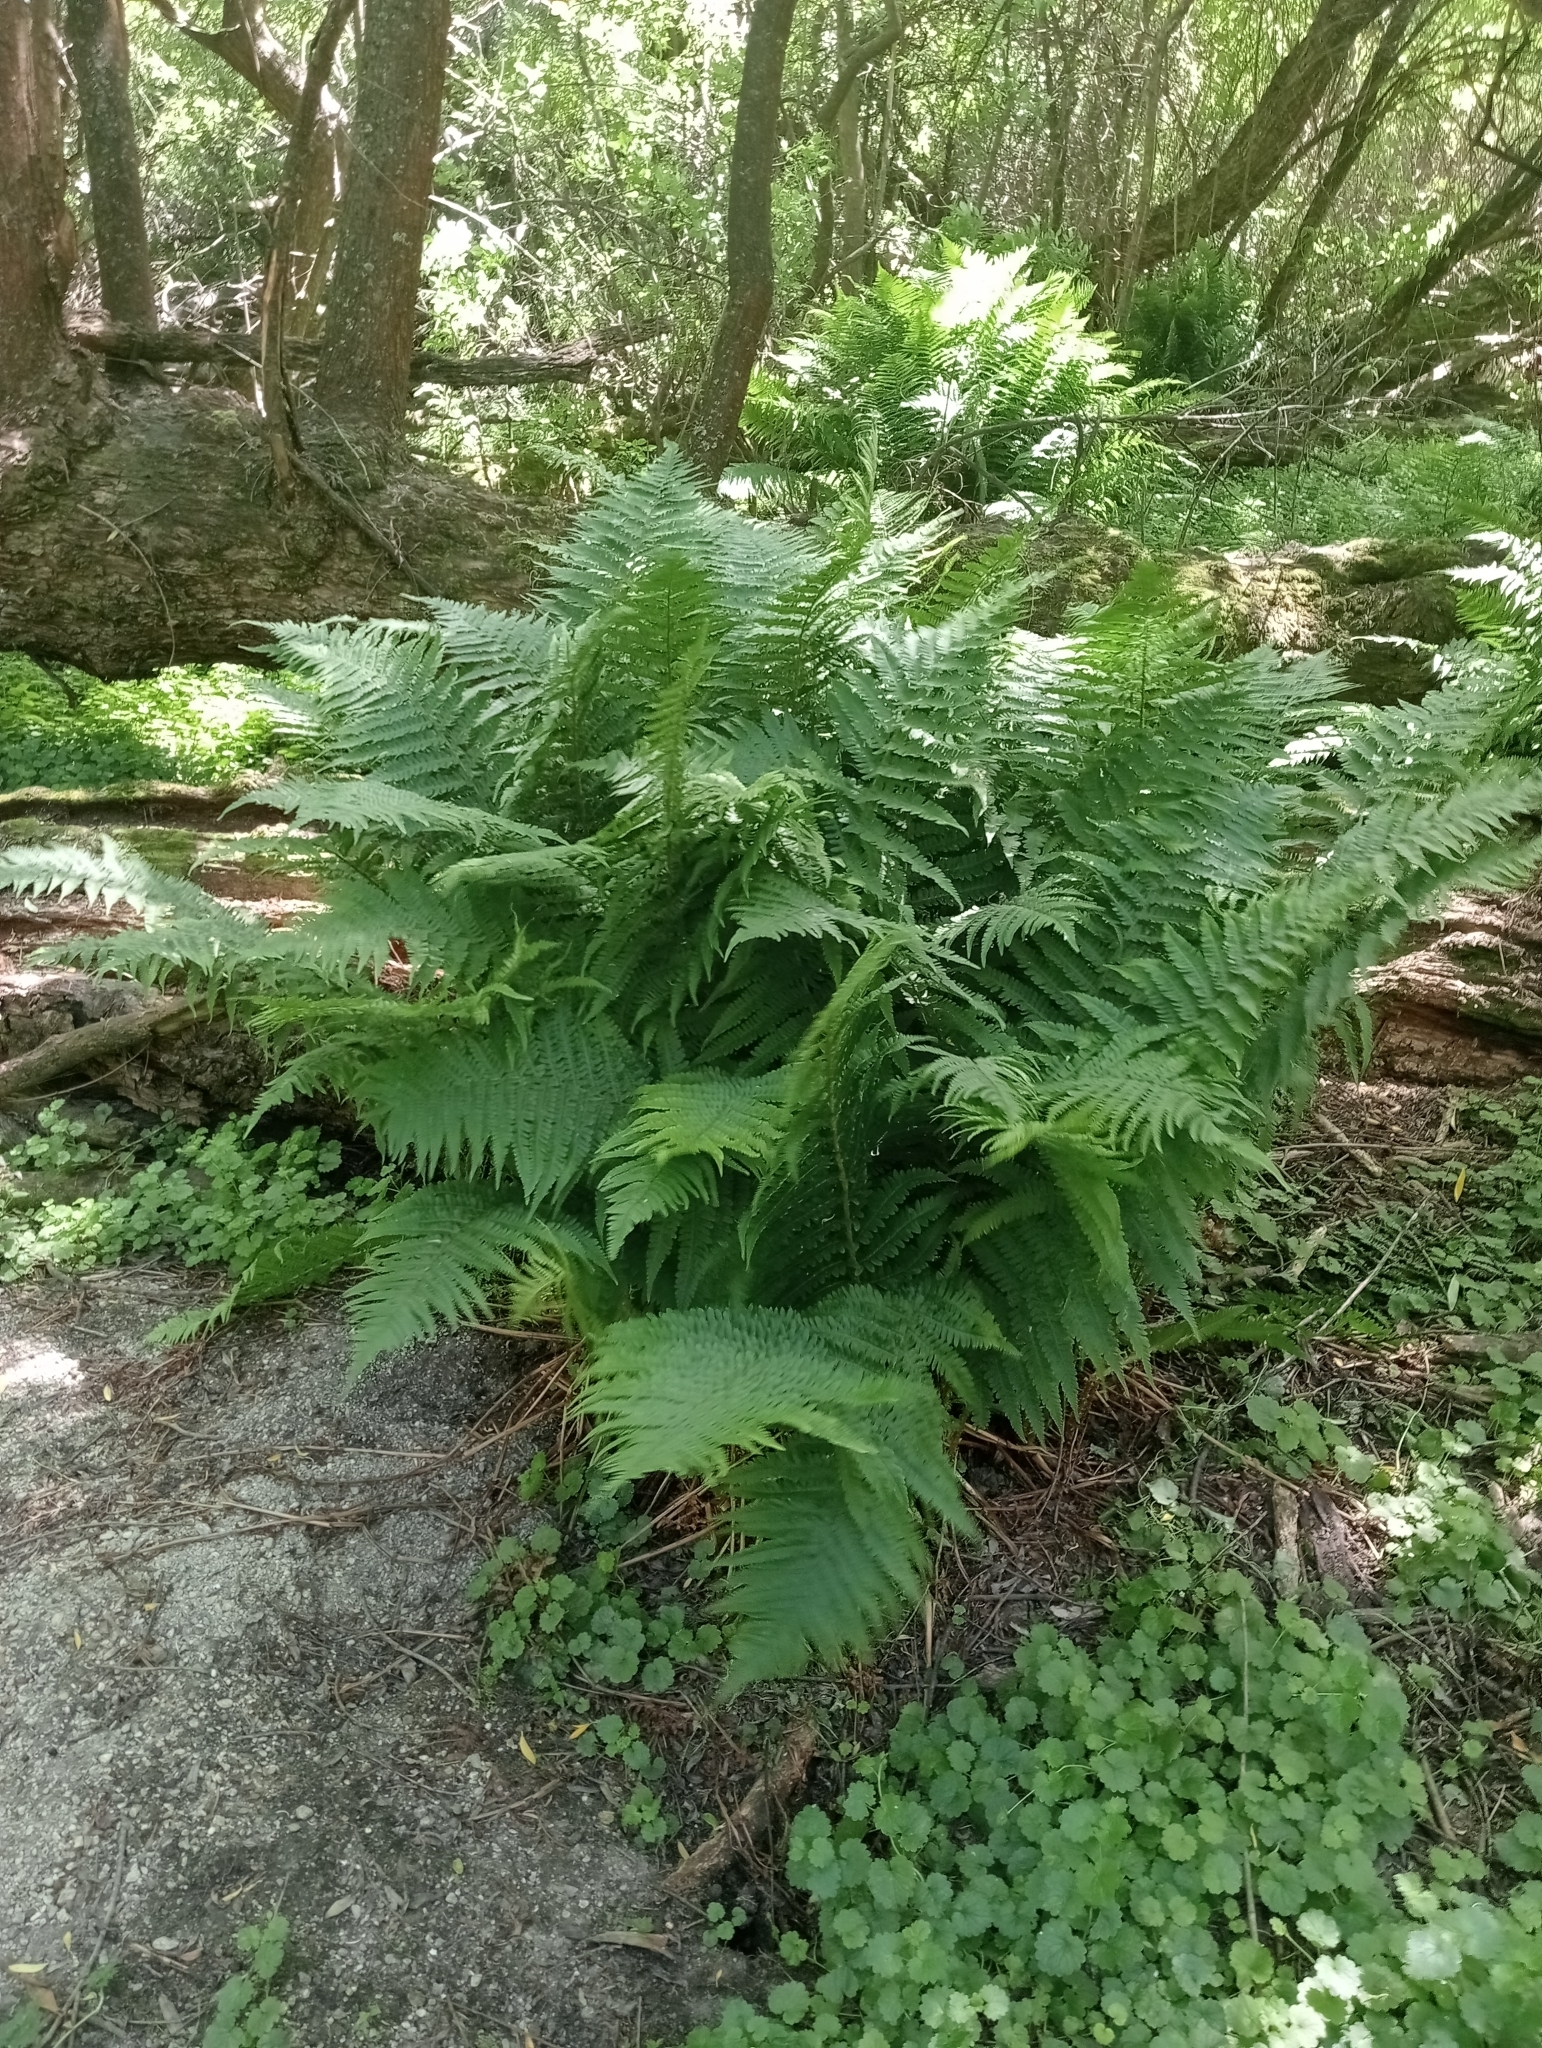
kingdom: Plantae
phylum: Tracheophyta
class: Polypodiopsida
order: Polypodiales
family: Dryopteridaceae
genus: Dryopteris
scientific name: Dryopteris filix-mas
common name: Male fern
